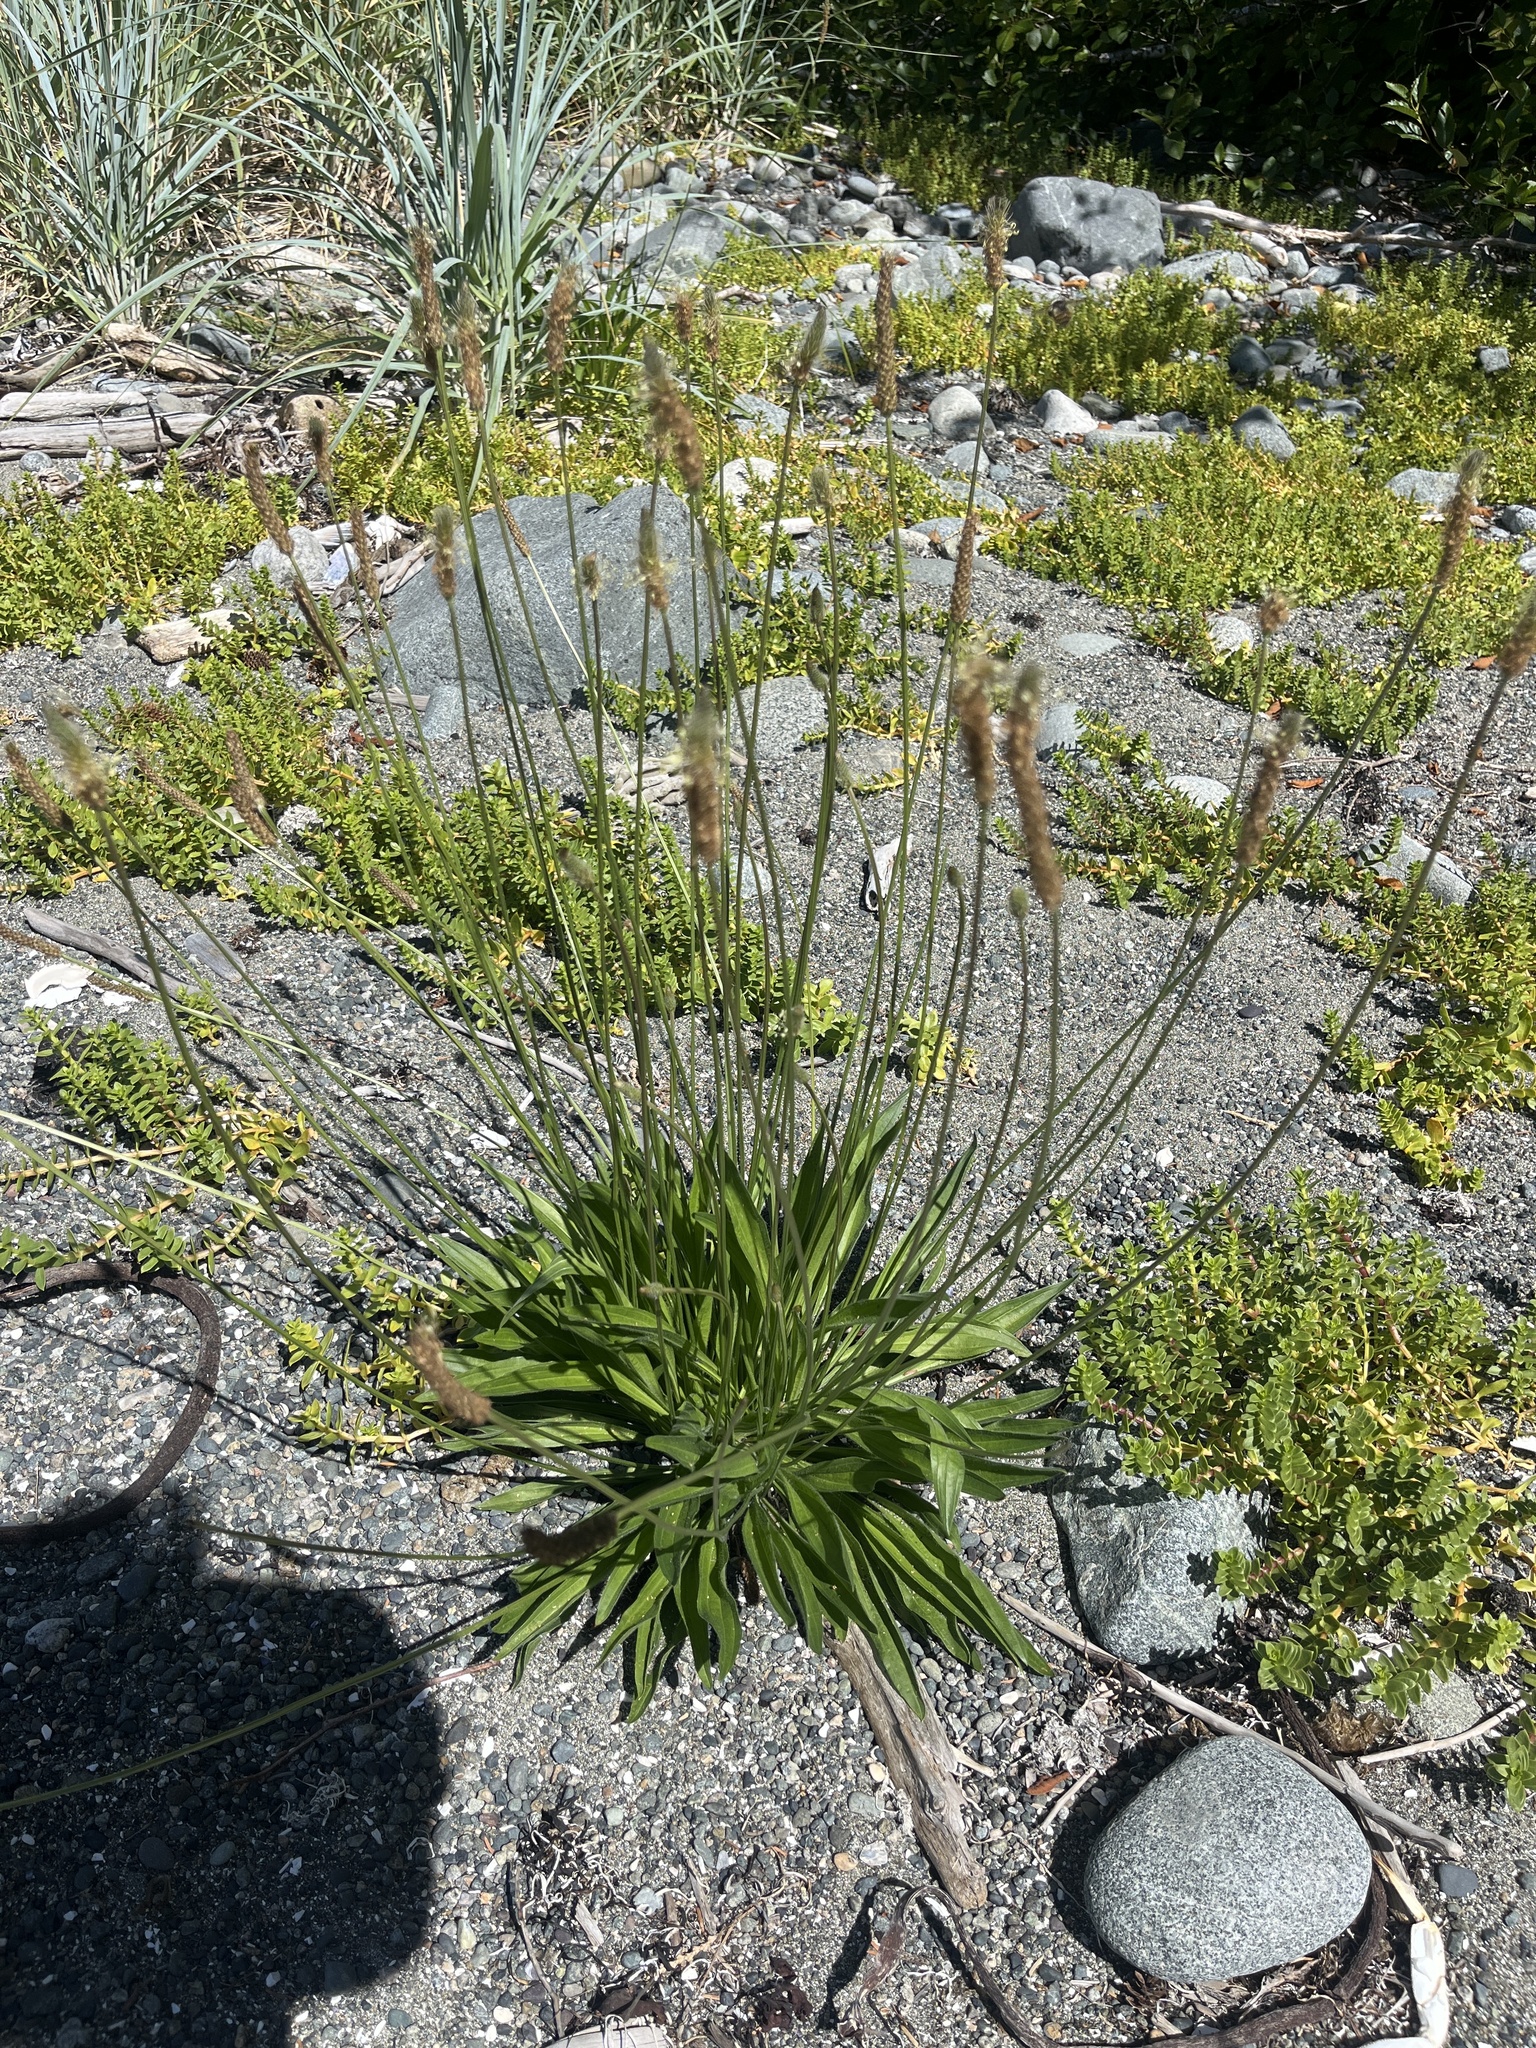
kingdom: Plantae
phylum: Tracheophyta
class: Magnoliopsida
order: Lamiales
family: Plantaginaceae
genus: Plantago
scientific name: Plantago lanceolata
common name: Ribwort plantain
